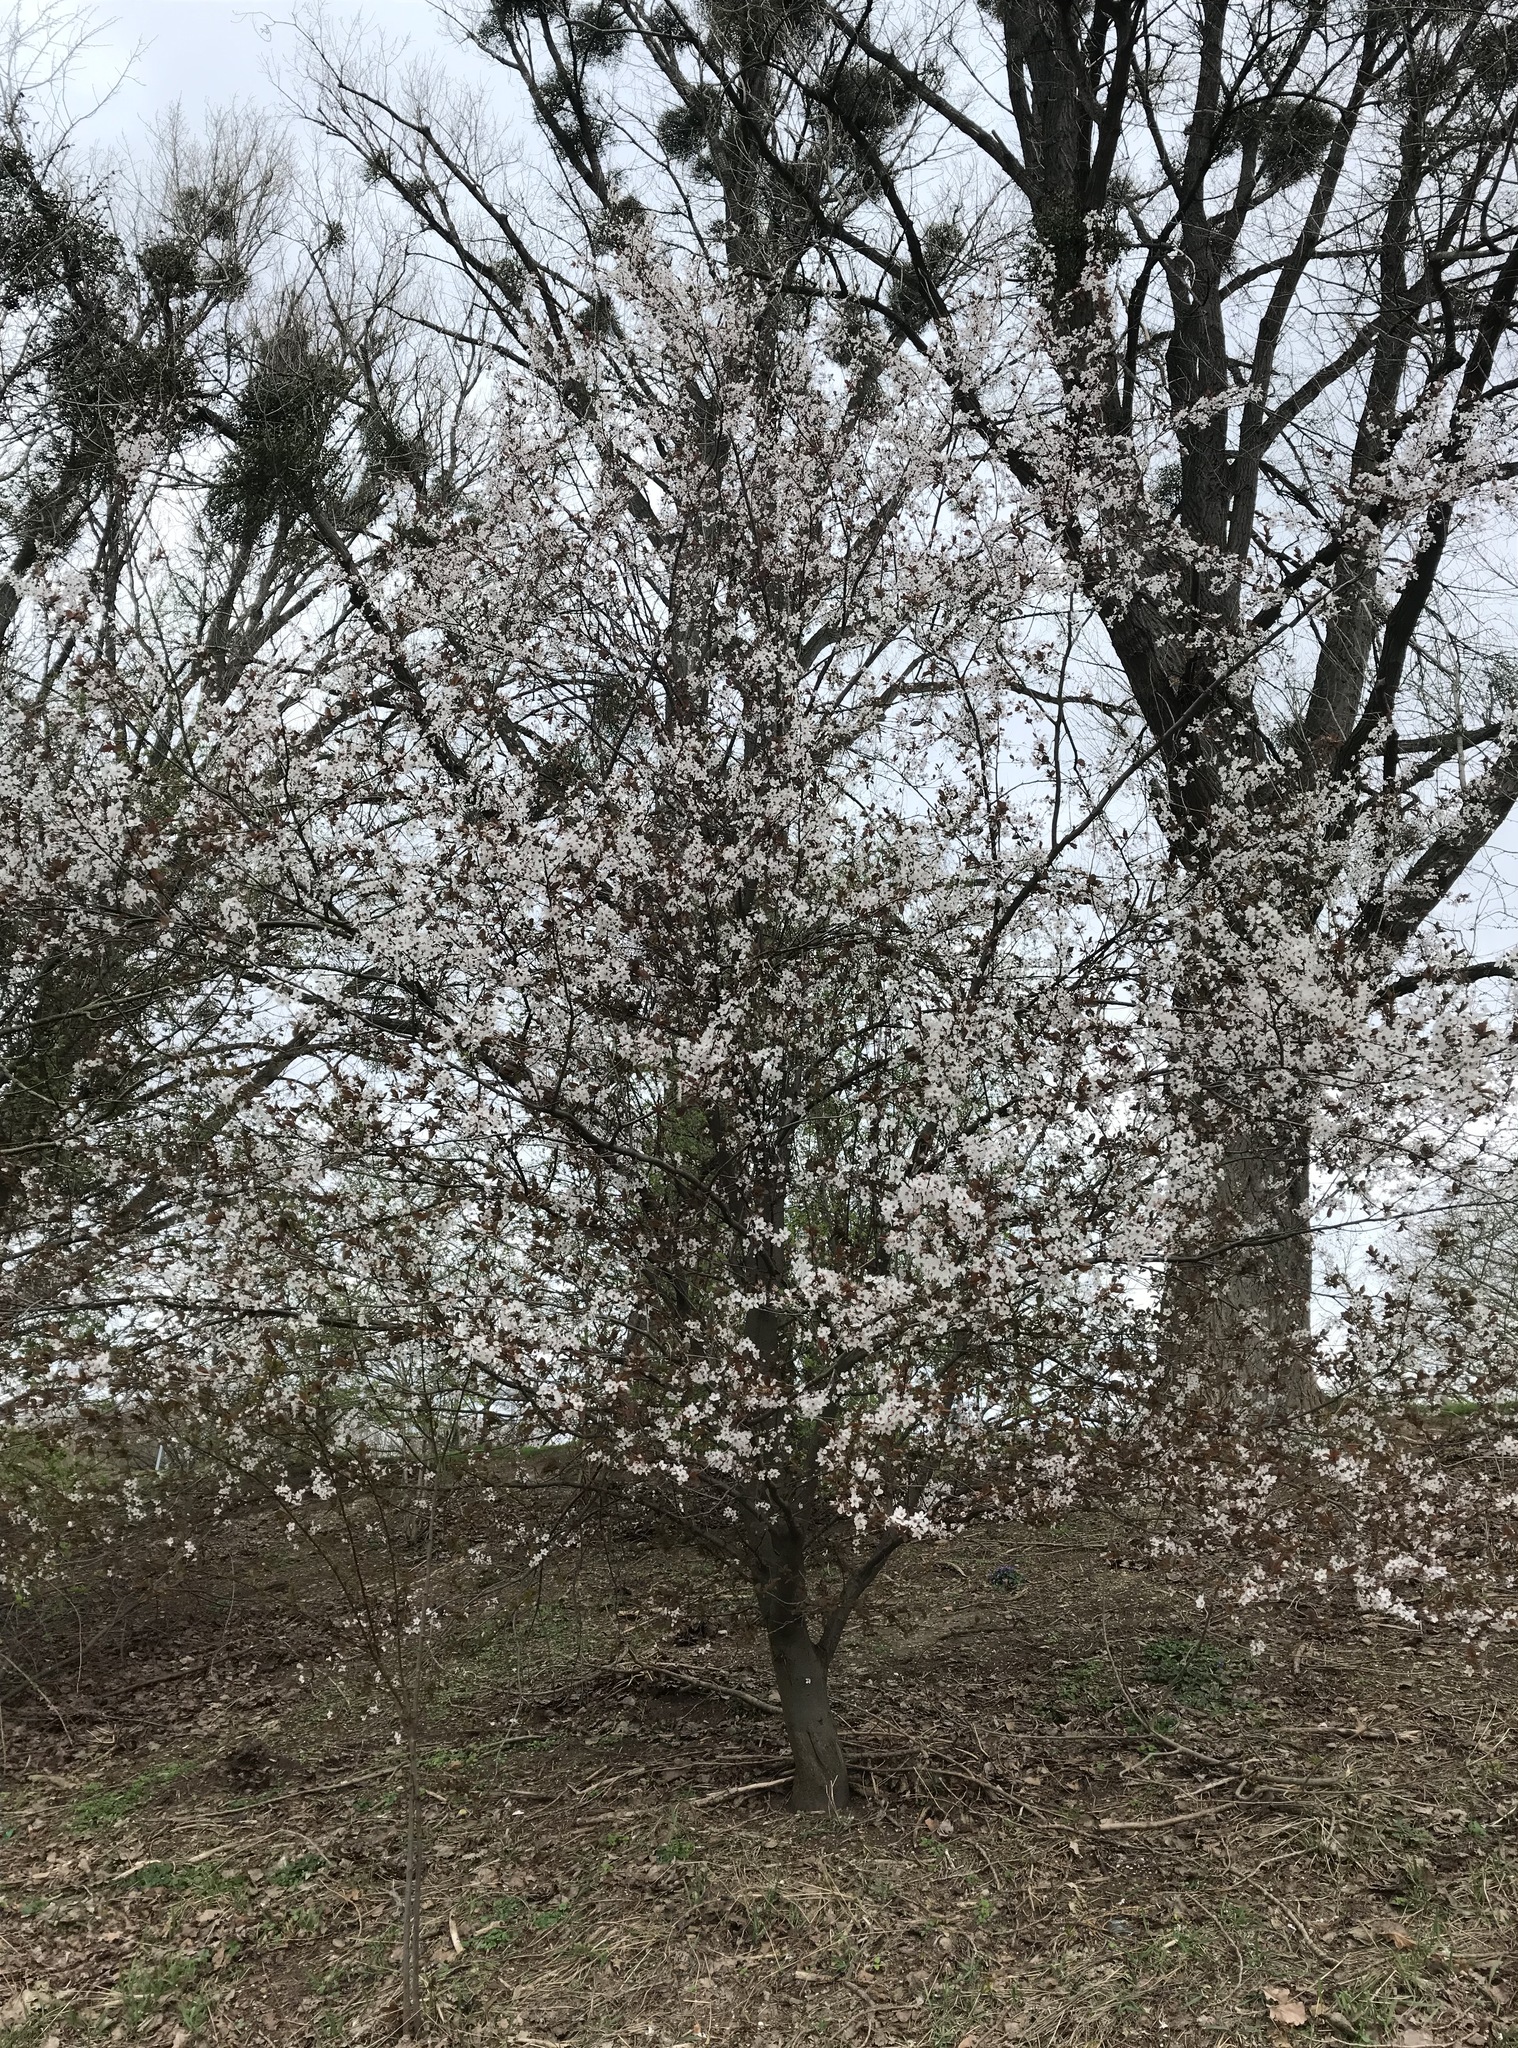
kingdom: Plantae
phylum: Tracheophyta
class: Magnoliopsida
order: Rosales
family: Rosaceae
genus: Prunus
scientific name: Prunus cerasifera
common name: Cherry plum
